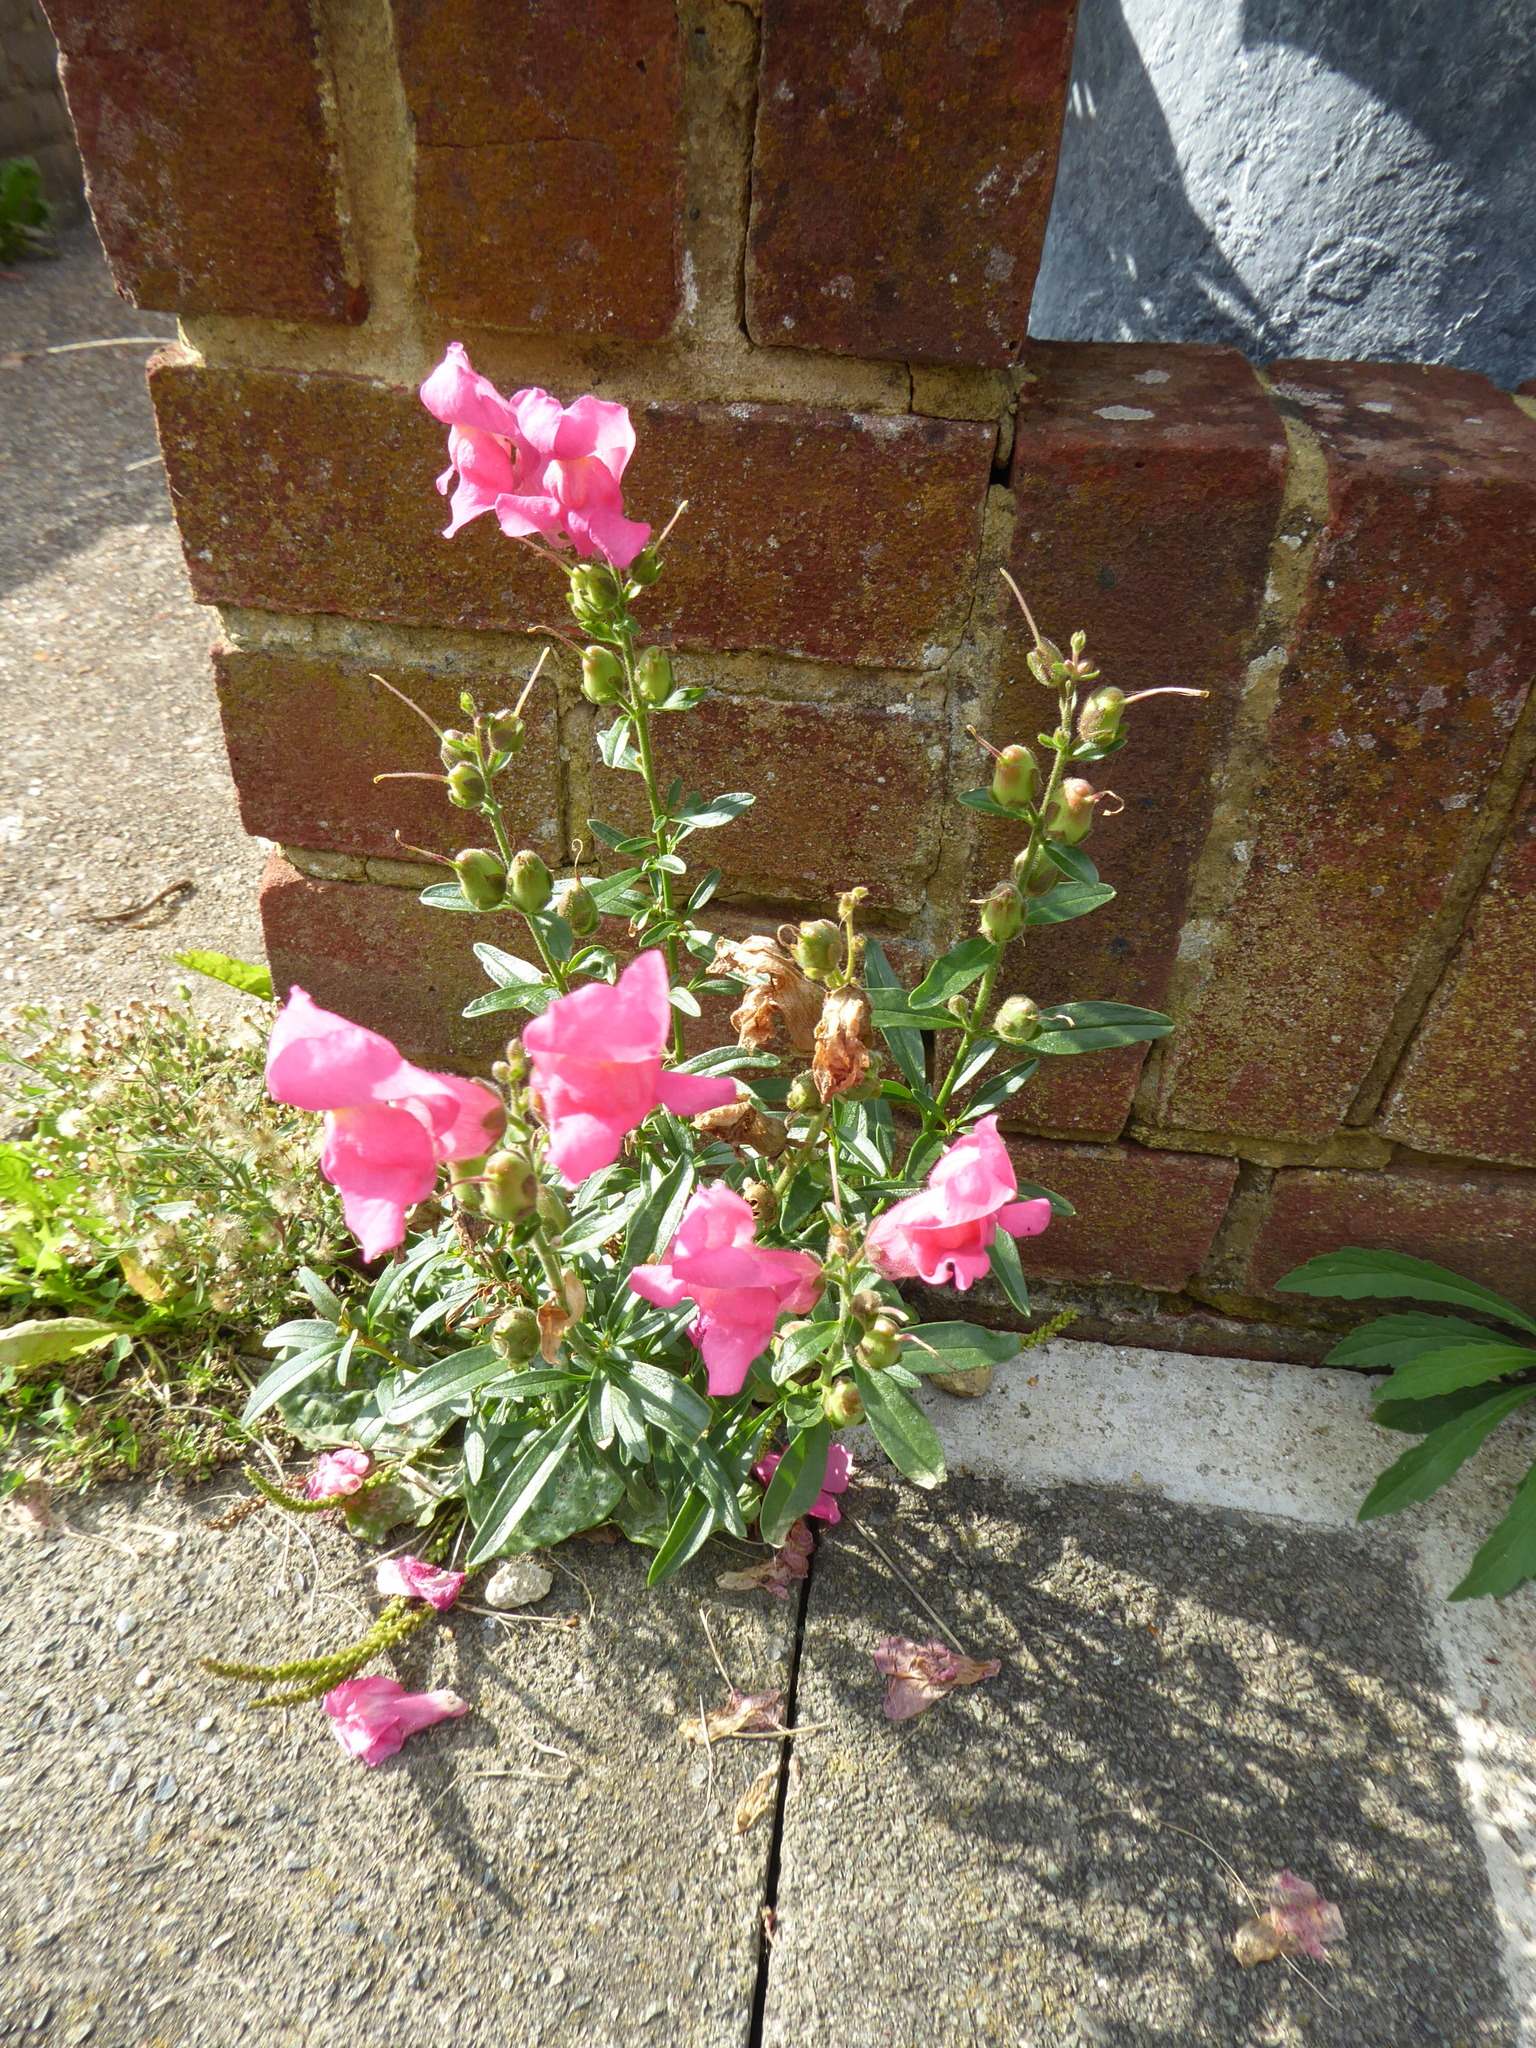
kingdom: Plantae
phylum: Tracheophyta
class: Magnoliopsida
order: Lamiales
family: Plantaginaceae
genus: Antirrhinum
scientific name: Antirrhinum majus
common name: Snapdragon
